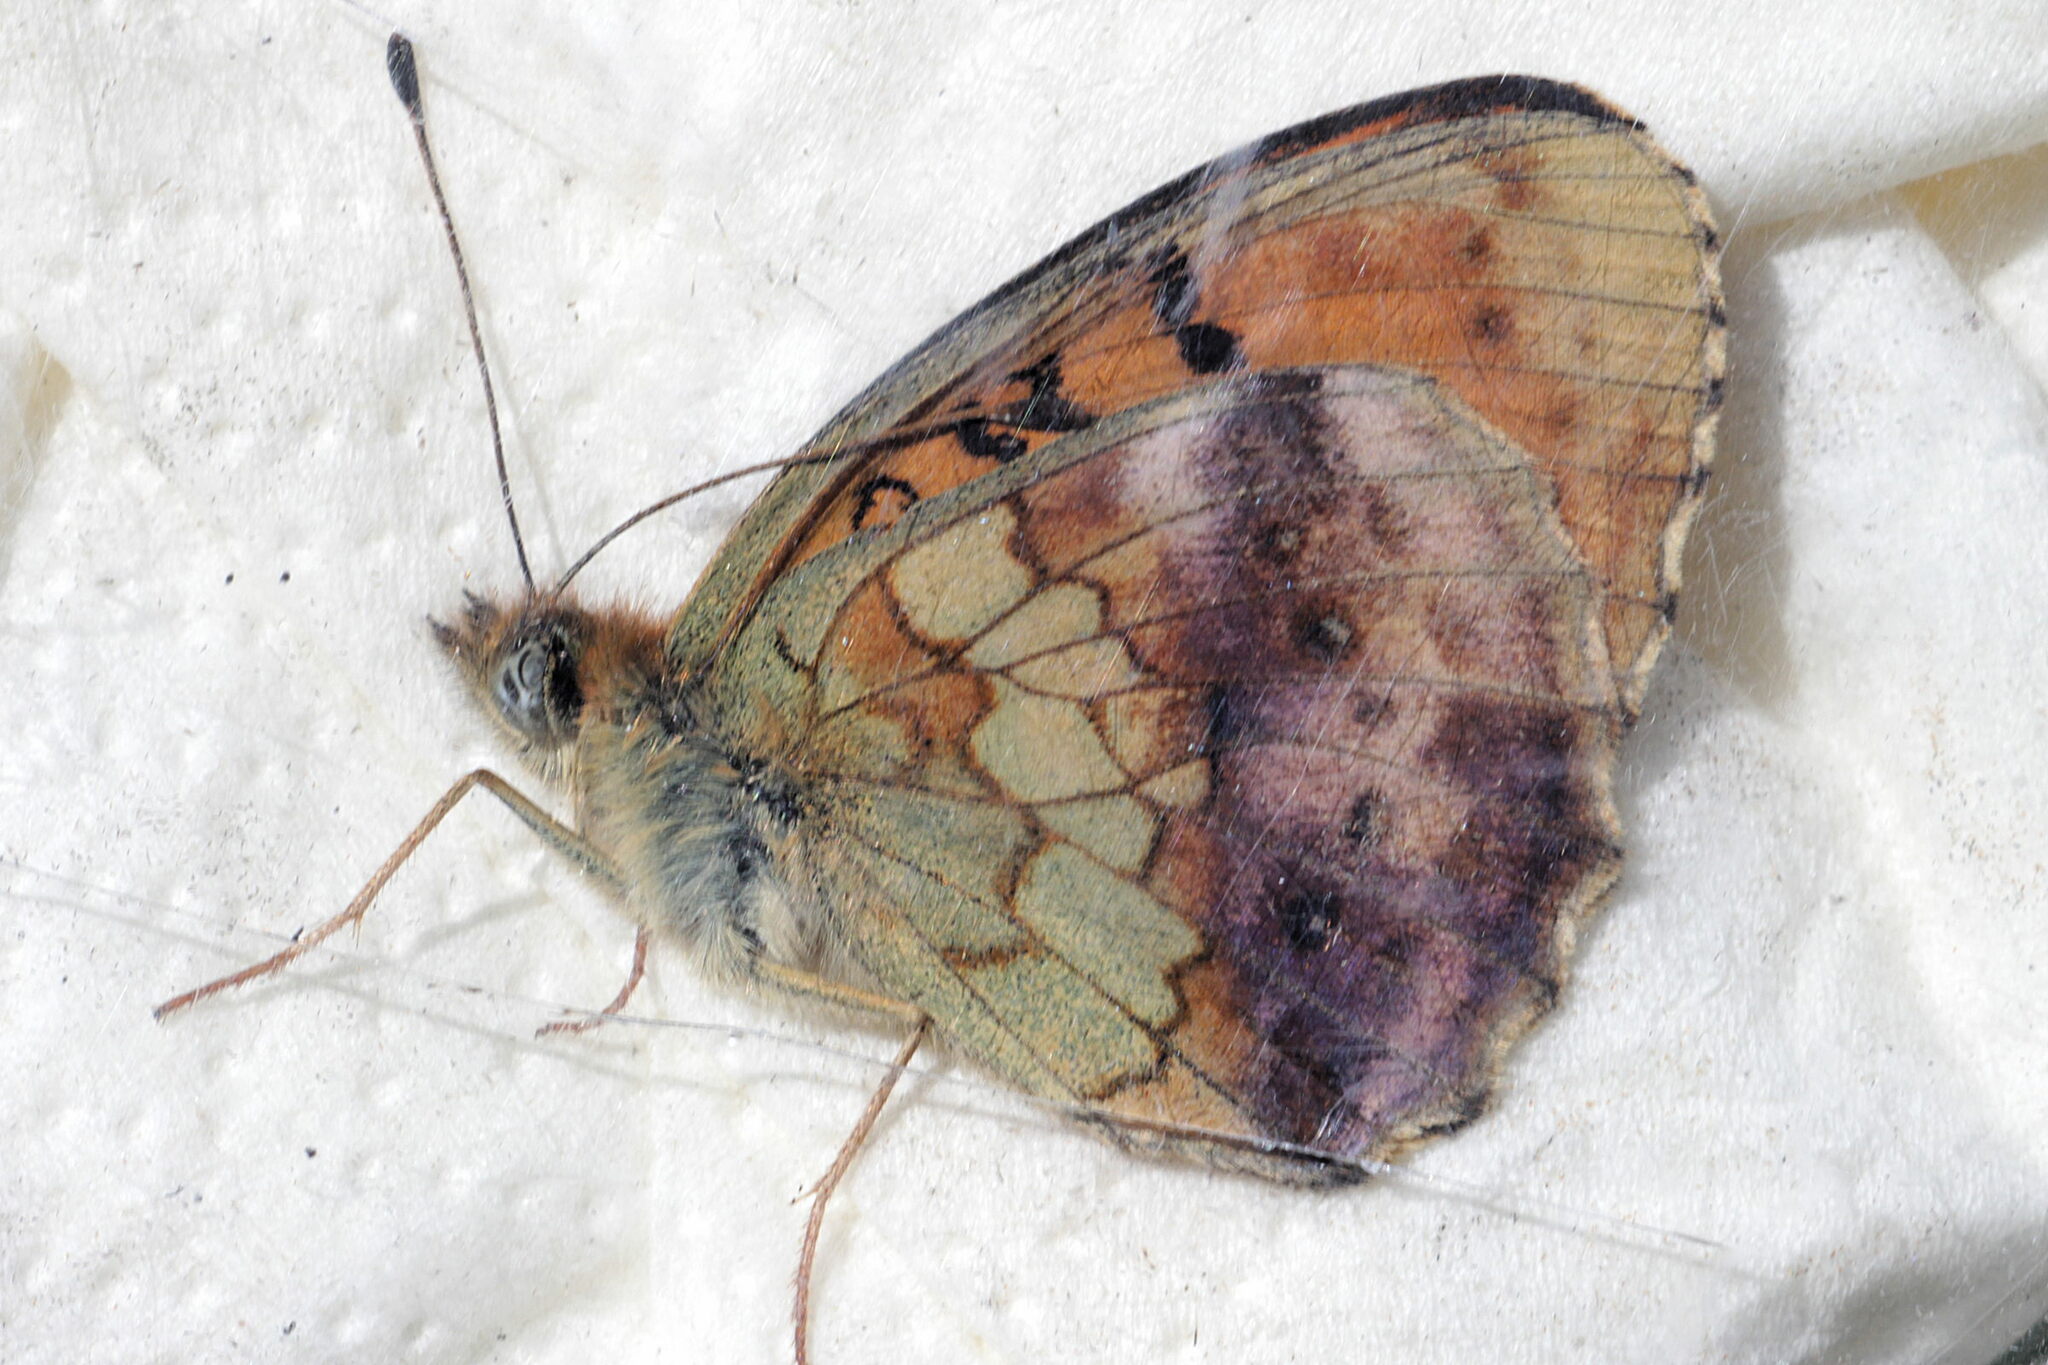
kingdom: Animalia
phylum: Arthropoda
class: Insecta
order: Lepidoptera
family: Nymphalidae
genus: Brenthis
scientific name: Brenthis daphne
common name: Marbled fritillary
